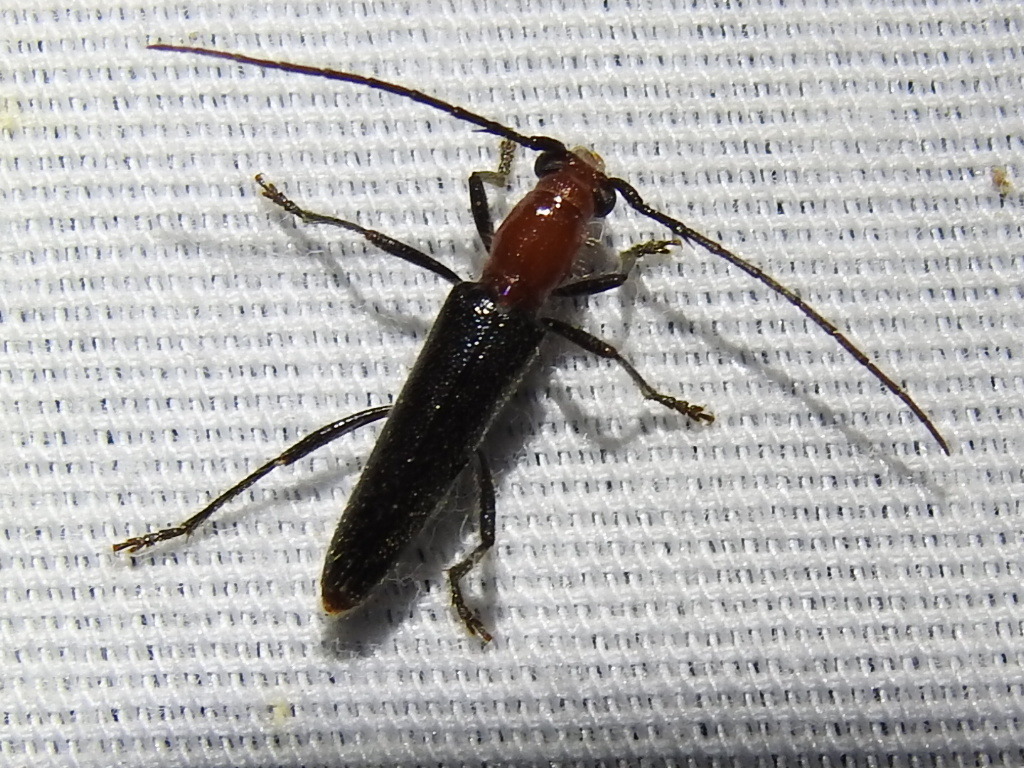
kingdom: Animalia
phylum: Arthropoda
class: Insecta
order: Coleoptera
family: Cerambycidae
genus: Psyrassa
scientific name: Psyrassa brevicornis
